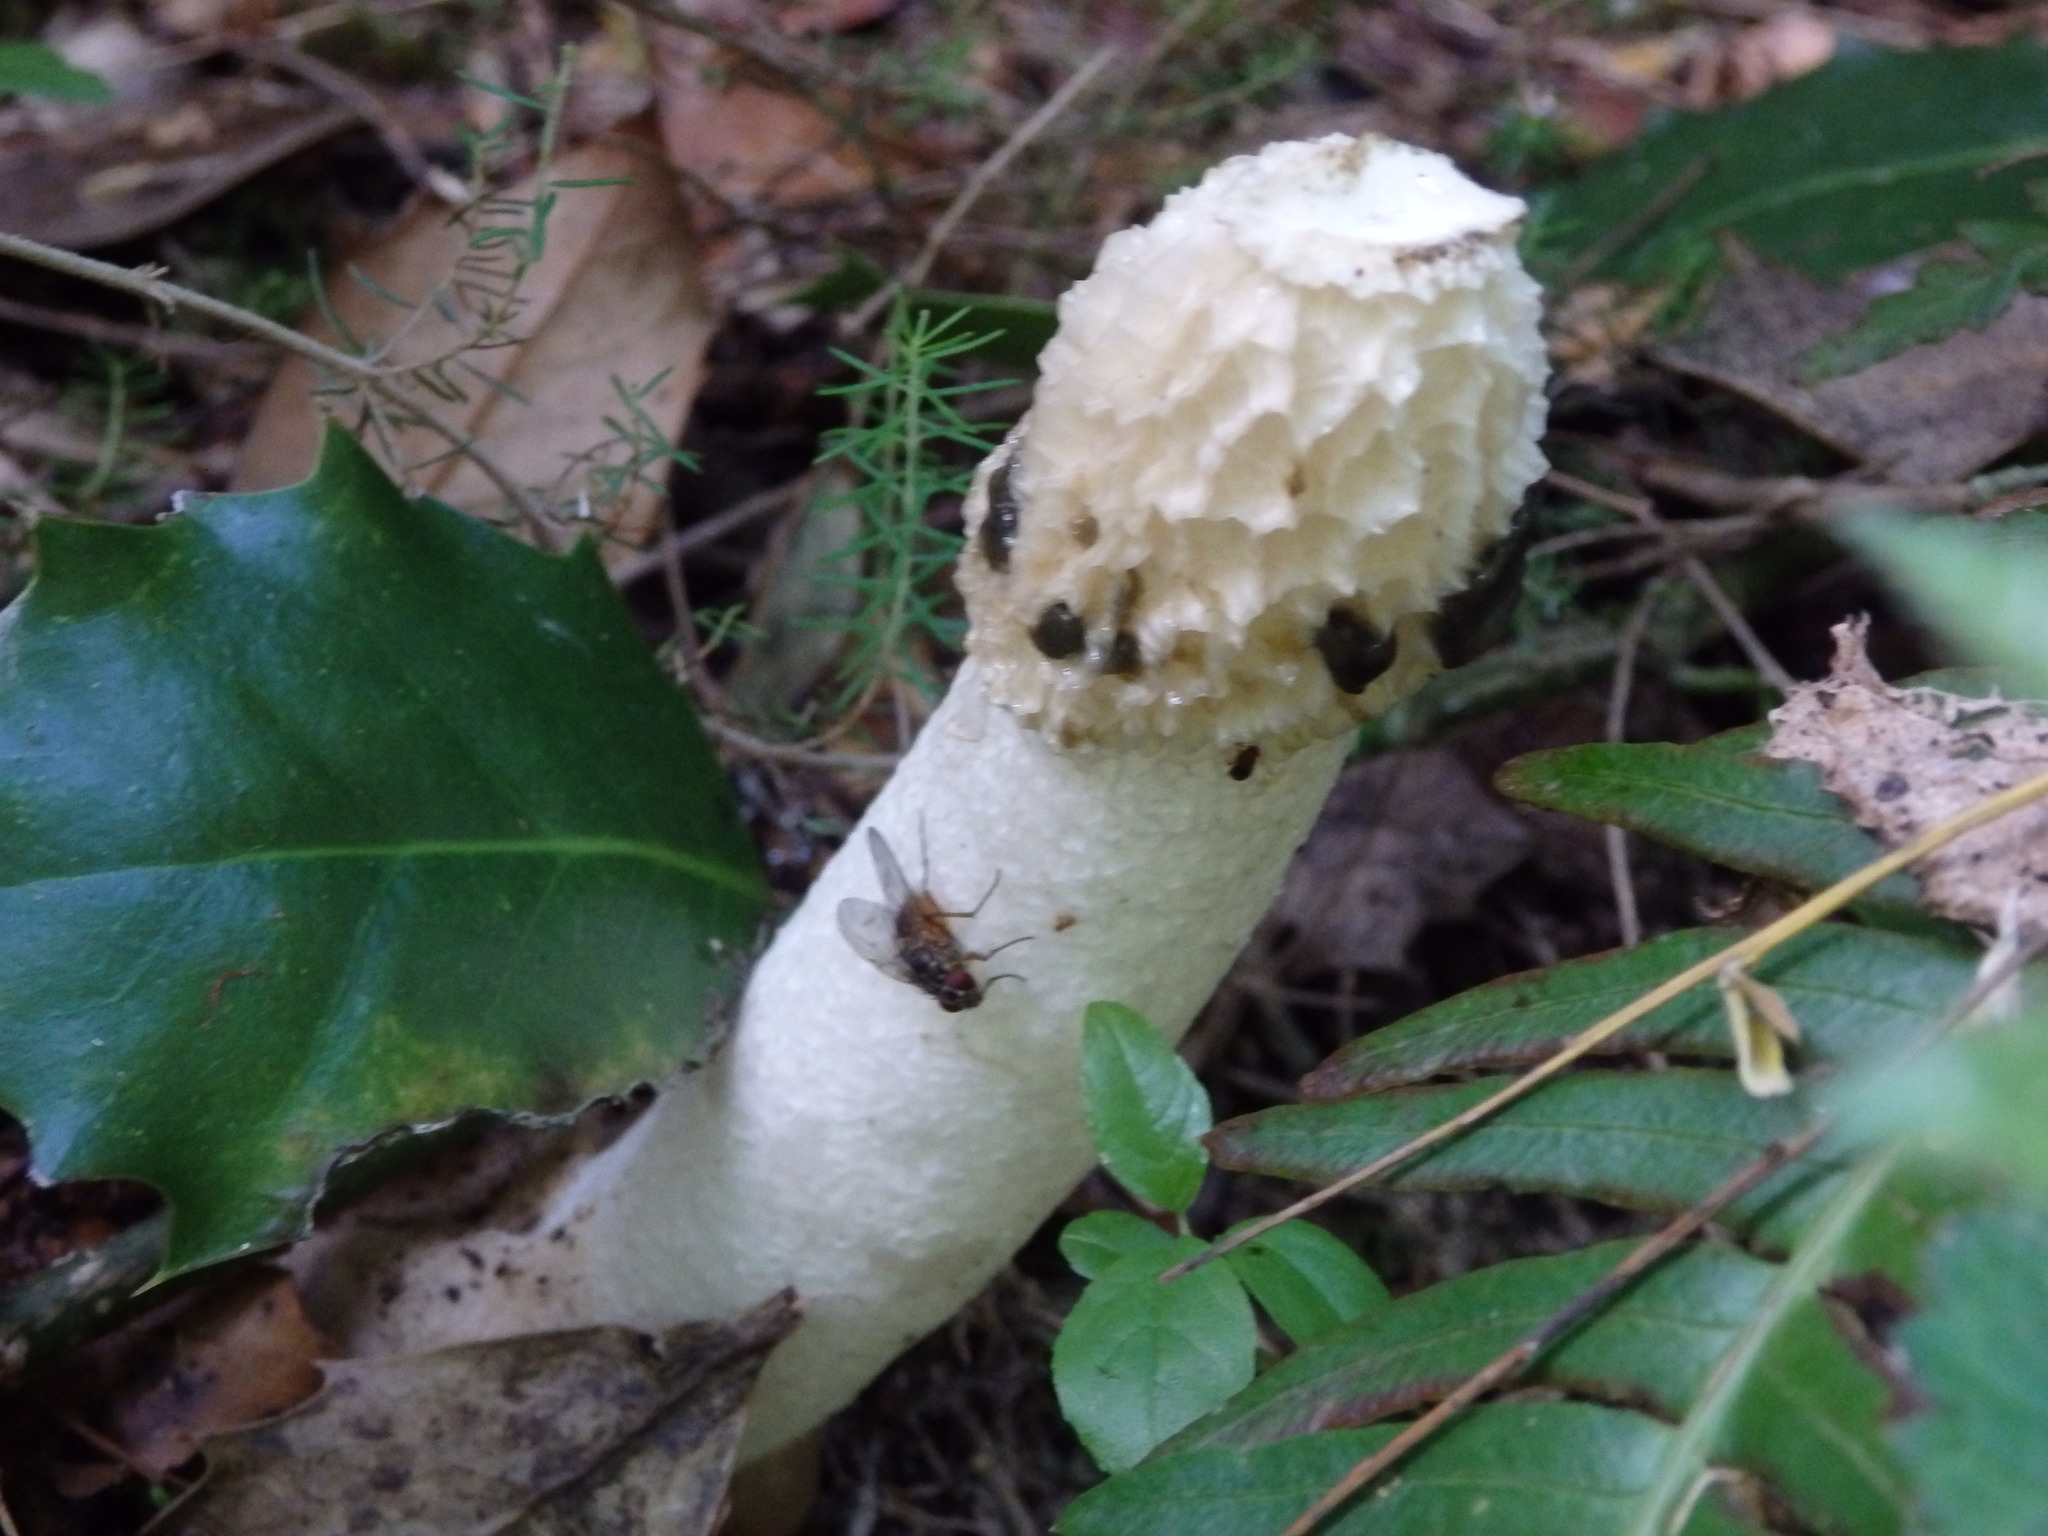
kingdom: Fungi
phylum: Basidiomycota
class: Agaricomycetes
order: Phallales
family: Phallaceae
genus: Phallus
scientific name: Phallus impudicus
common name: Common stinkhorn
